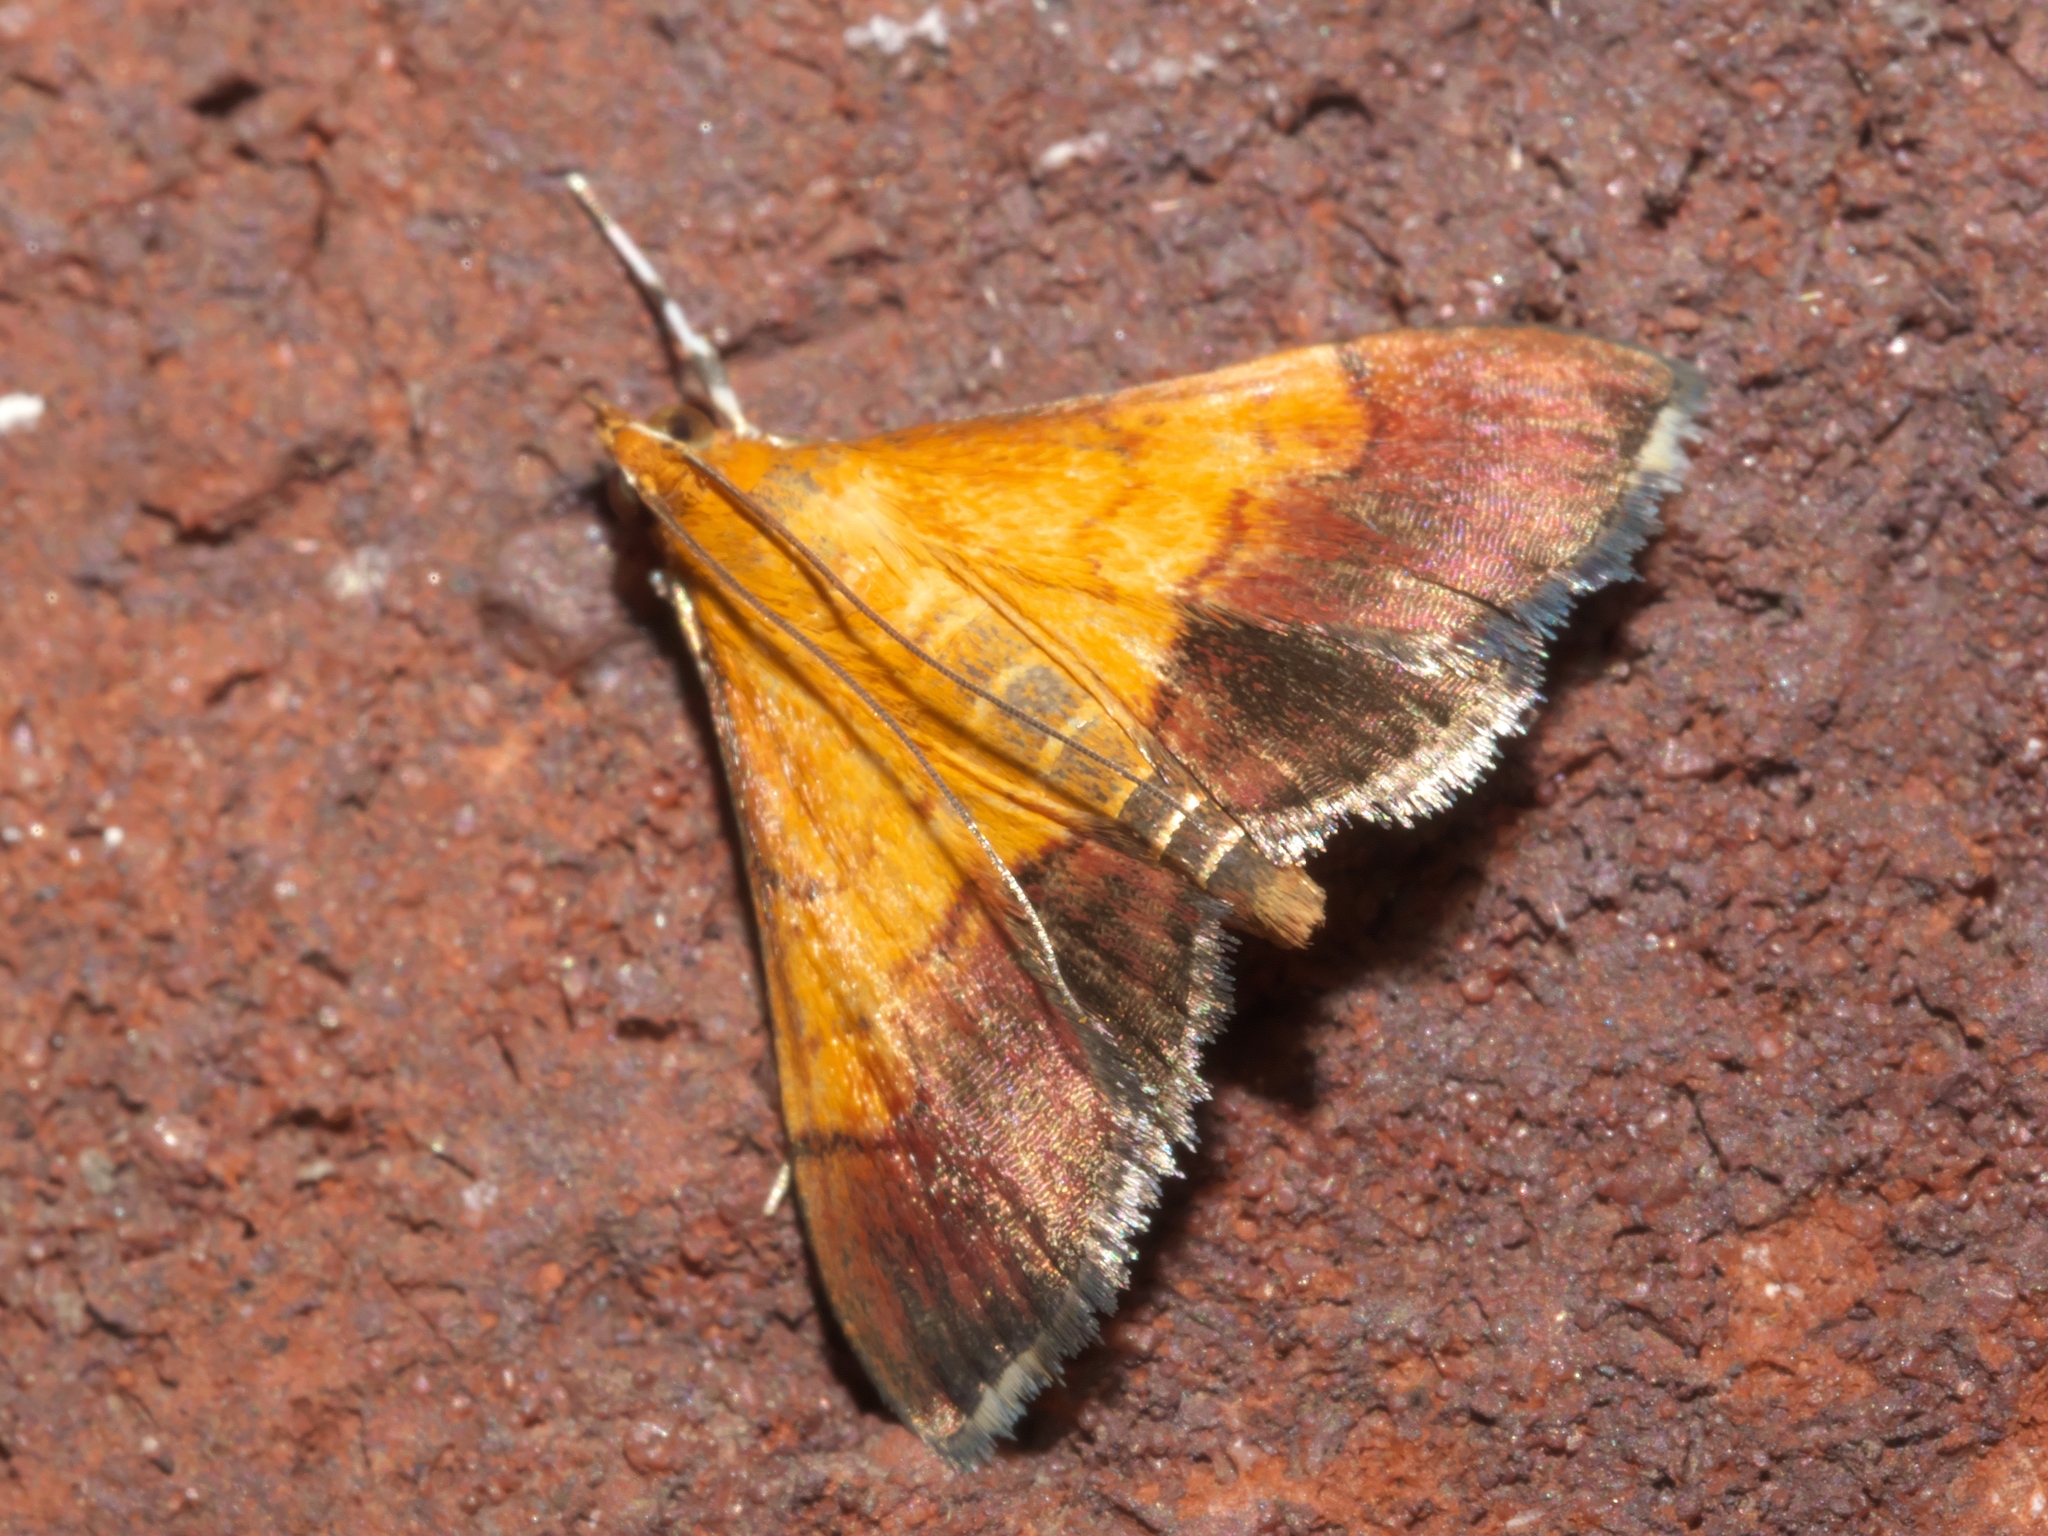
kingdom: Animalia
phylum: Arthropoda
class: Insecta
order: Lepidoptera
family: Crambidae
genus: Pyrausta
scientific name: Pyrausta bicoloralis
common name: Bicolored pyrausta moth
